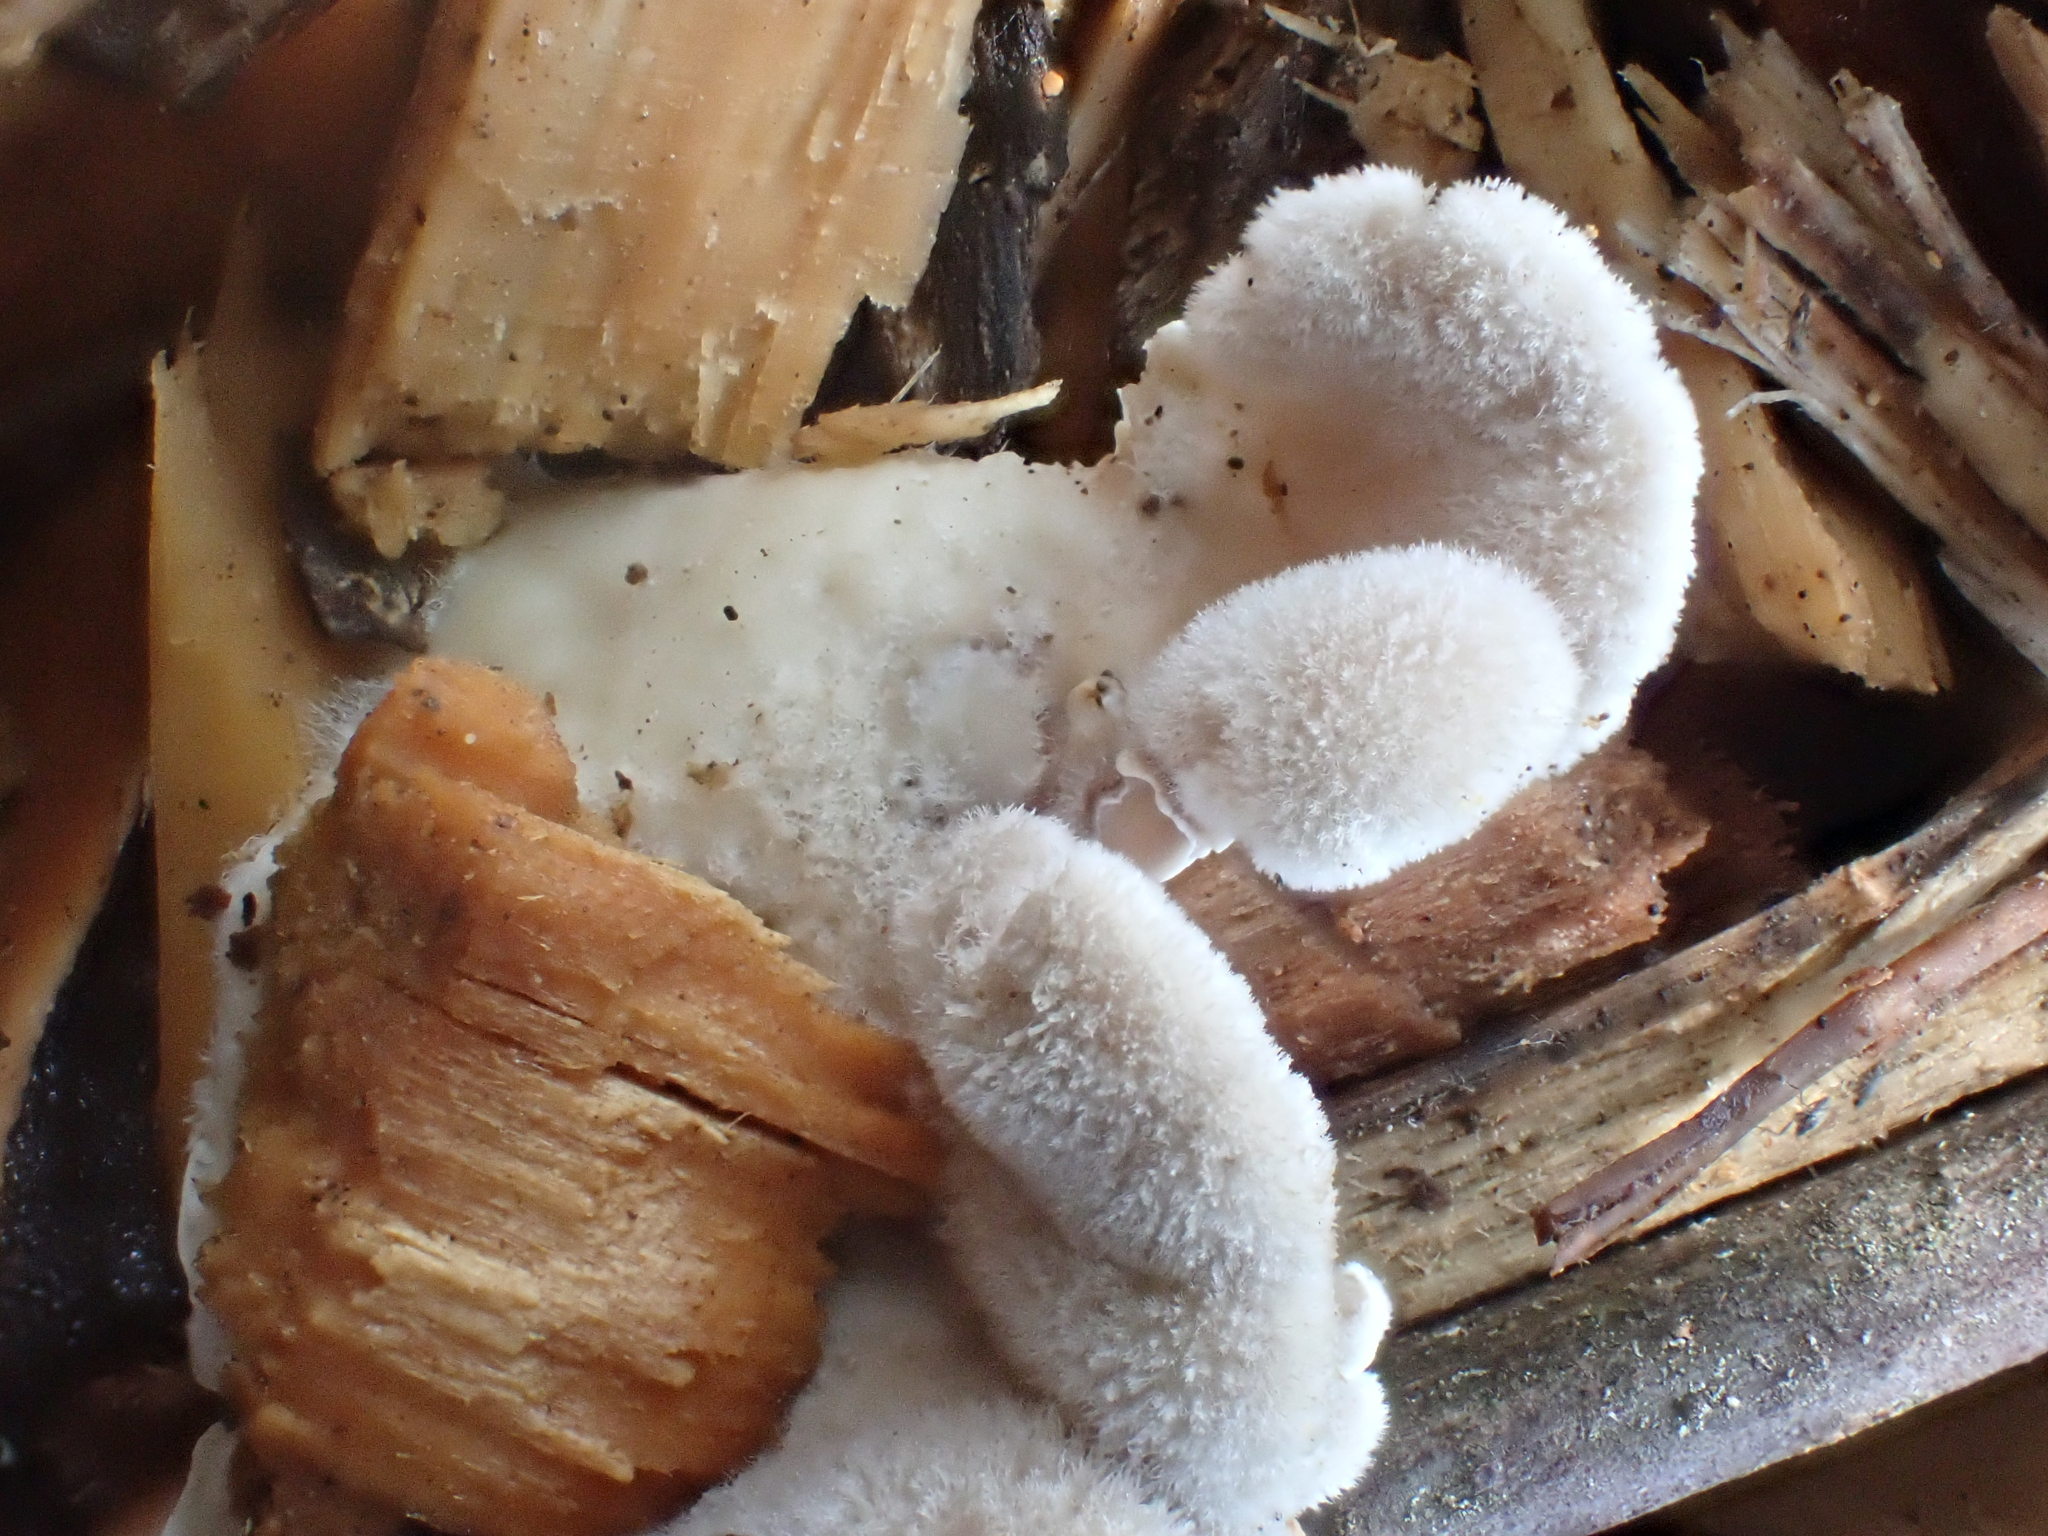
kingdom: Fungi
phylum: Basidiomycota
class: Agaricomycetes
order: Agaricales
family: Schizophyllaceae
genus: Schizophyllum
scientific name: Schizophyllum commune
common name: Common porecrust
